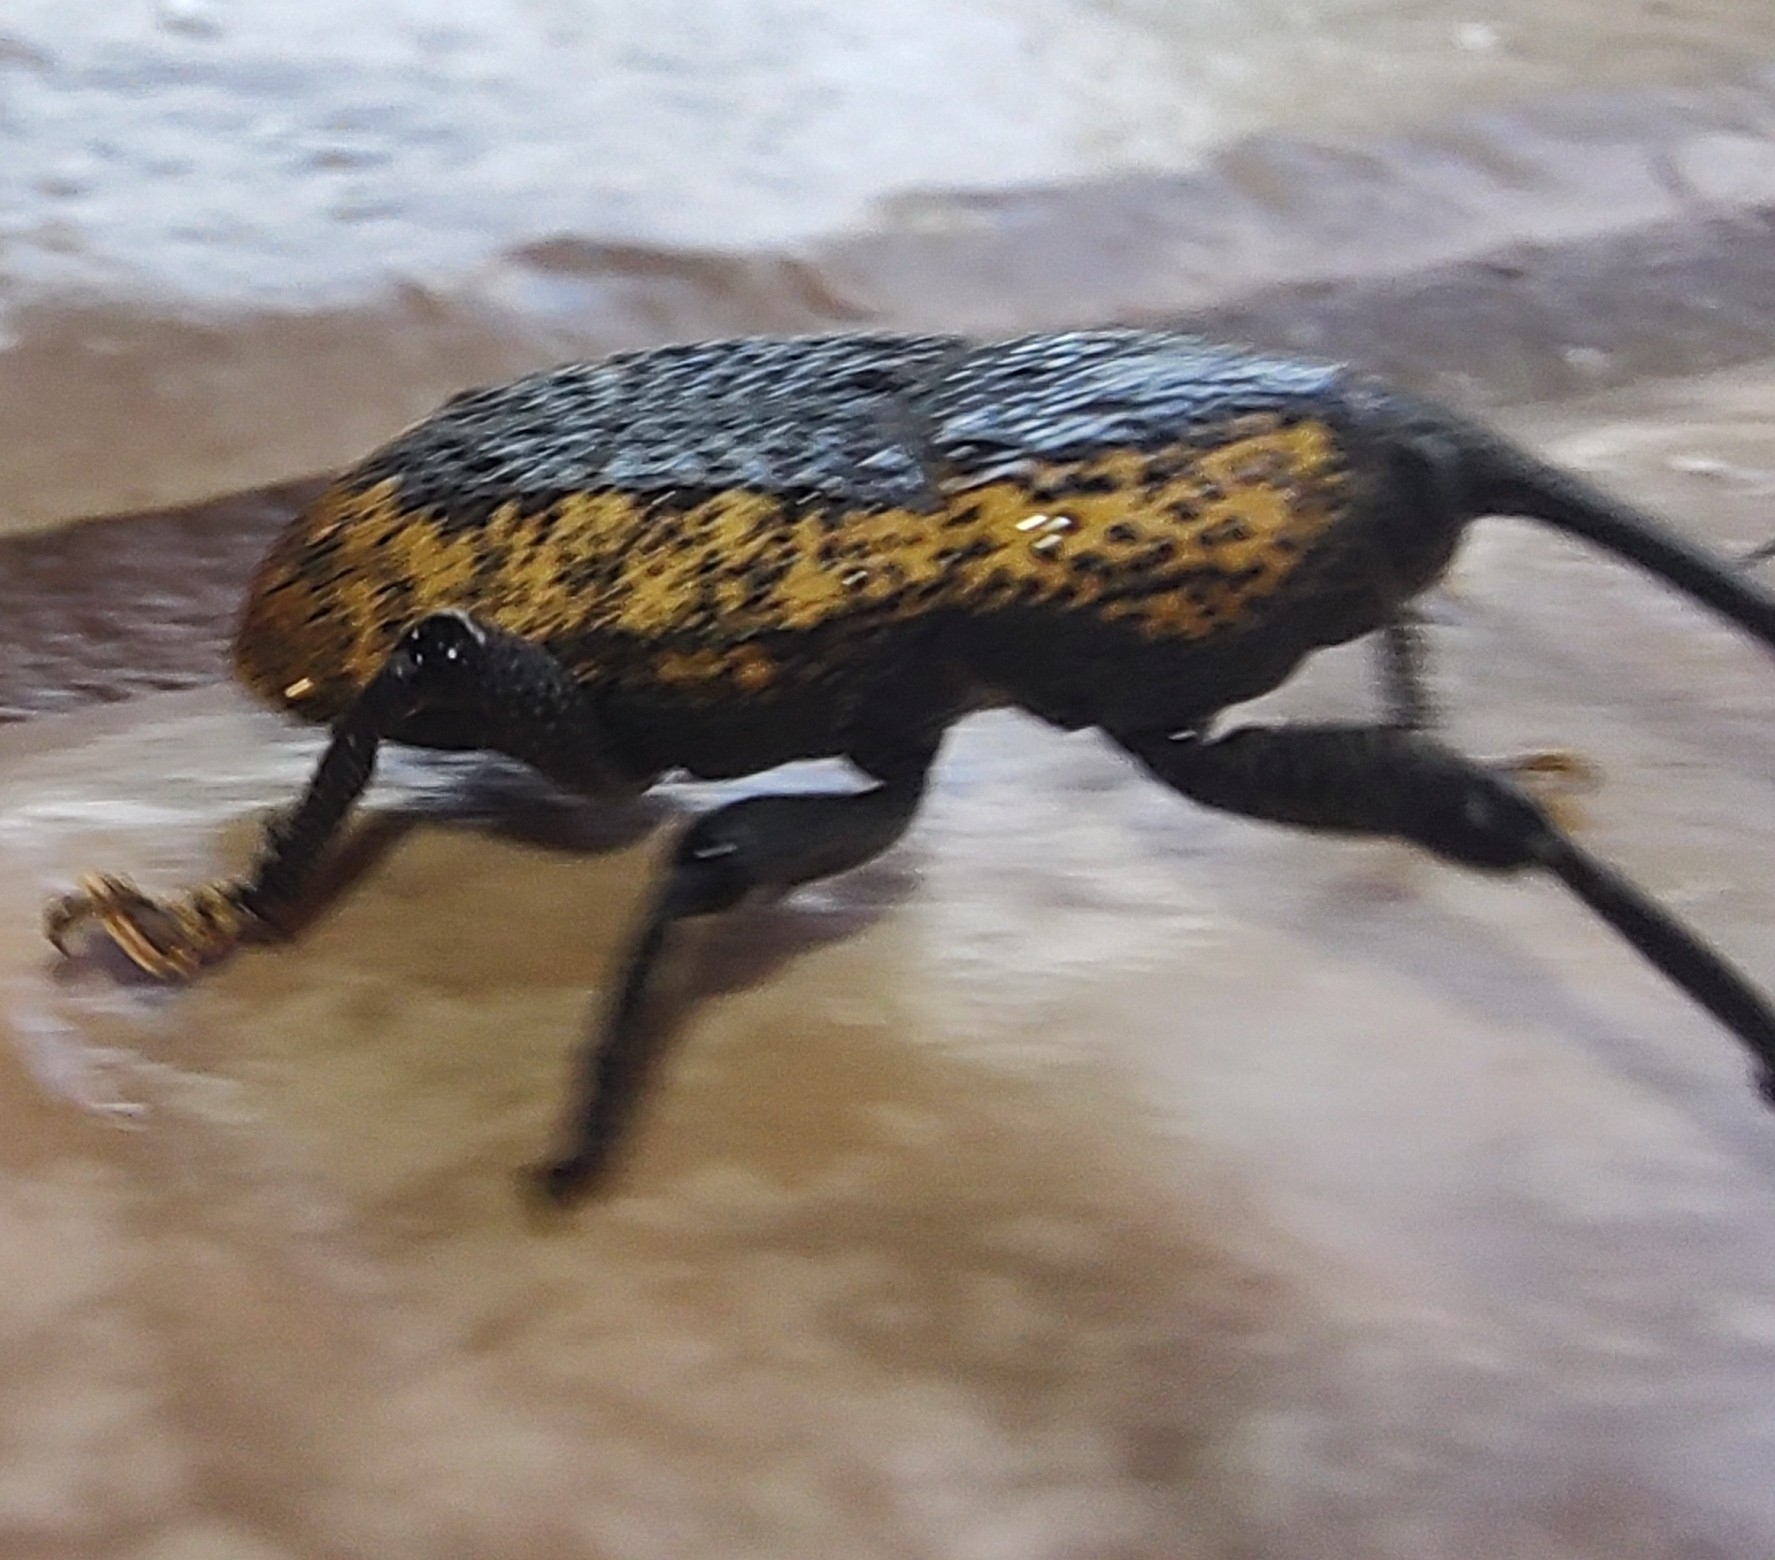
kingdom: Animalia
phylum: Arthropoda
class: Insecta
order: Coleoptera
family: Curculionidae
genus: Homalinotus
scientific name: Homalinotus deplanatus
